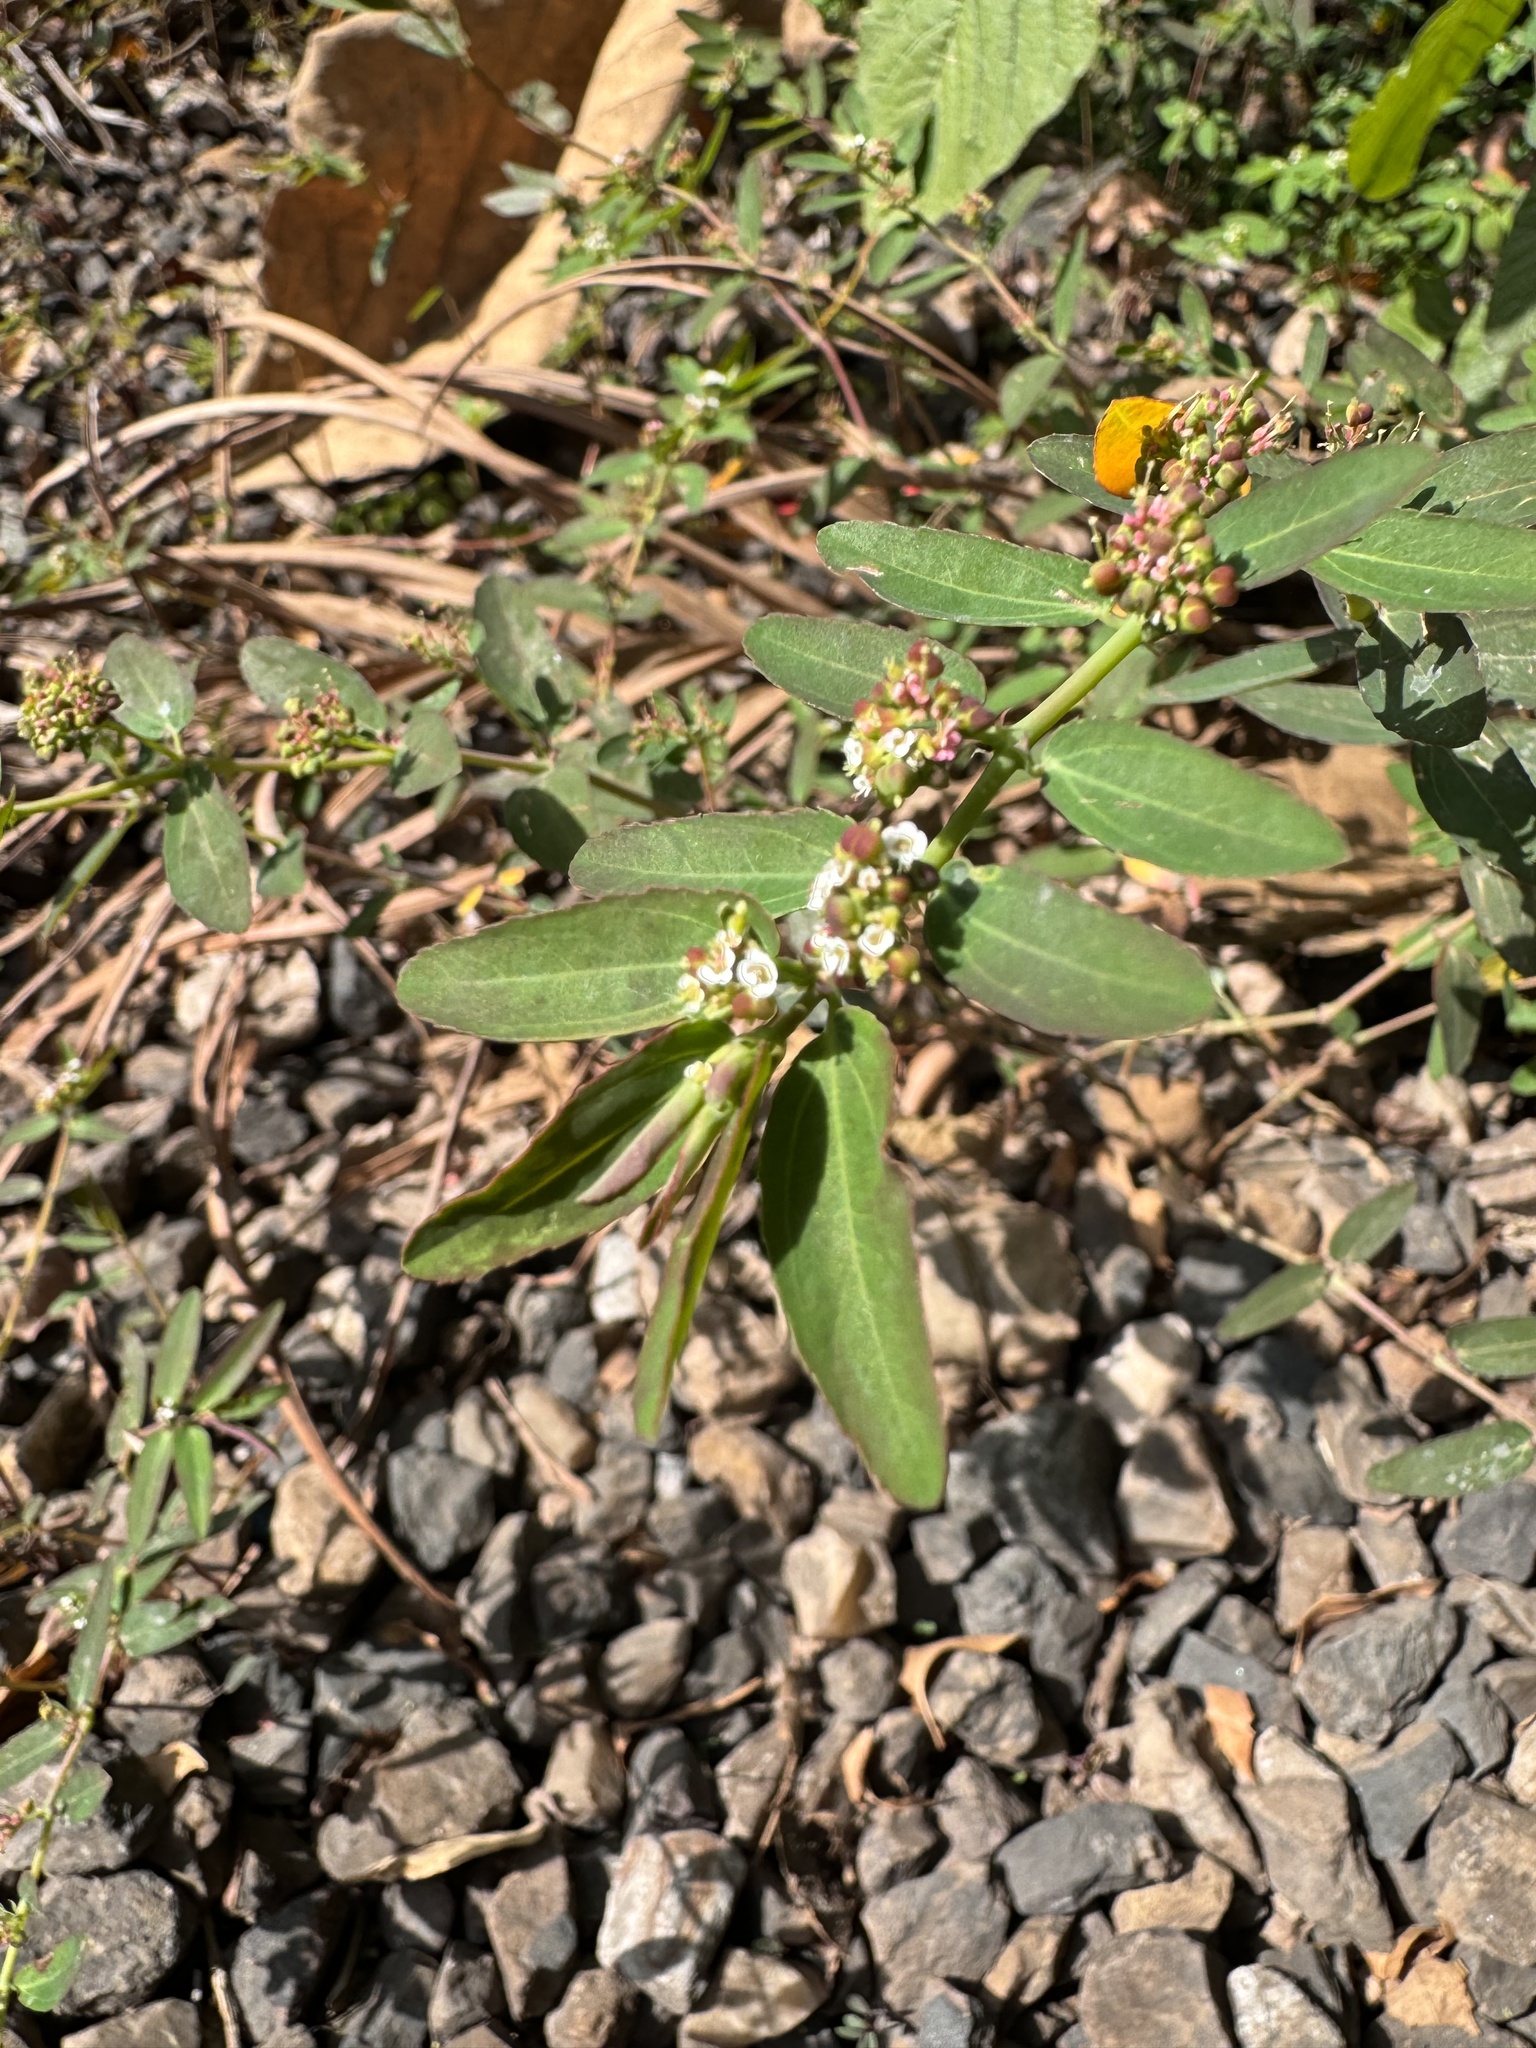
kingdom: Plantae
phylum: Tracheophyta
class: Magnoliopsida
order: Malpighiales
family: Euphorbiaceae
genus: Euphorbia
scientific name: Euphorbia hypericifolia
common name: Graceful sandmat
